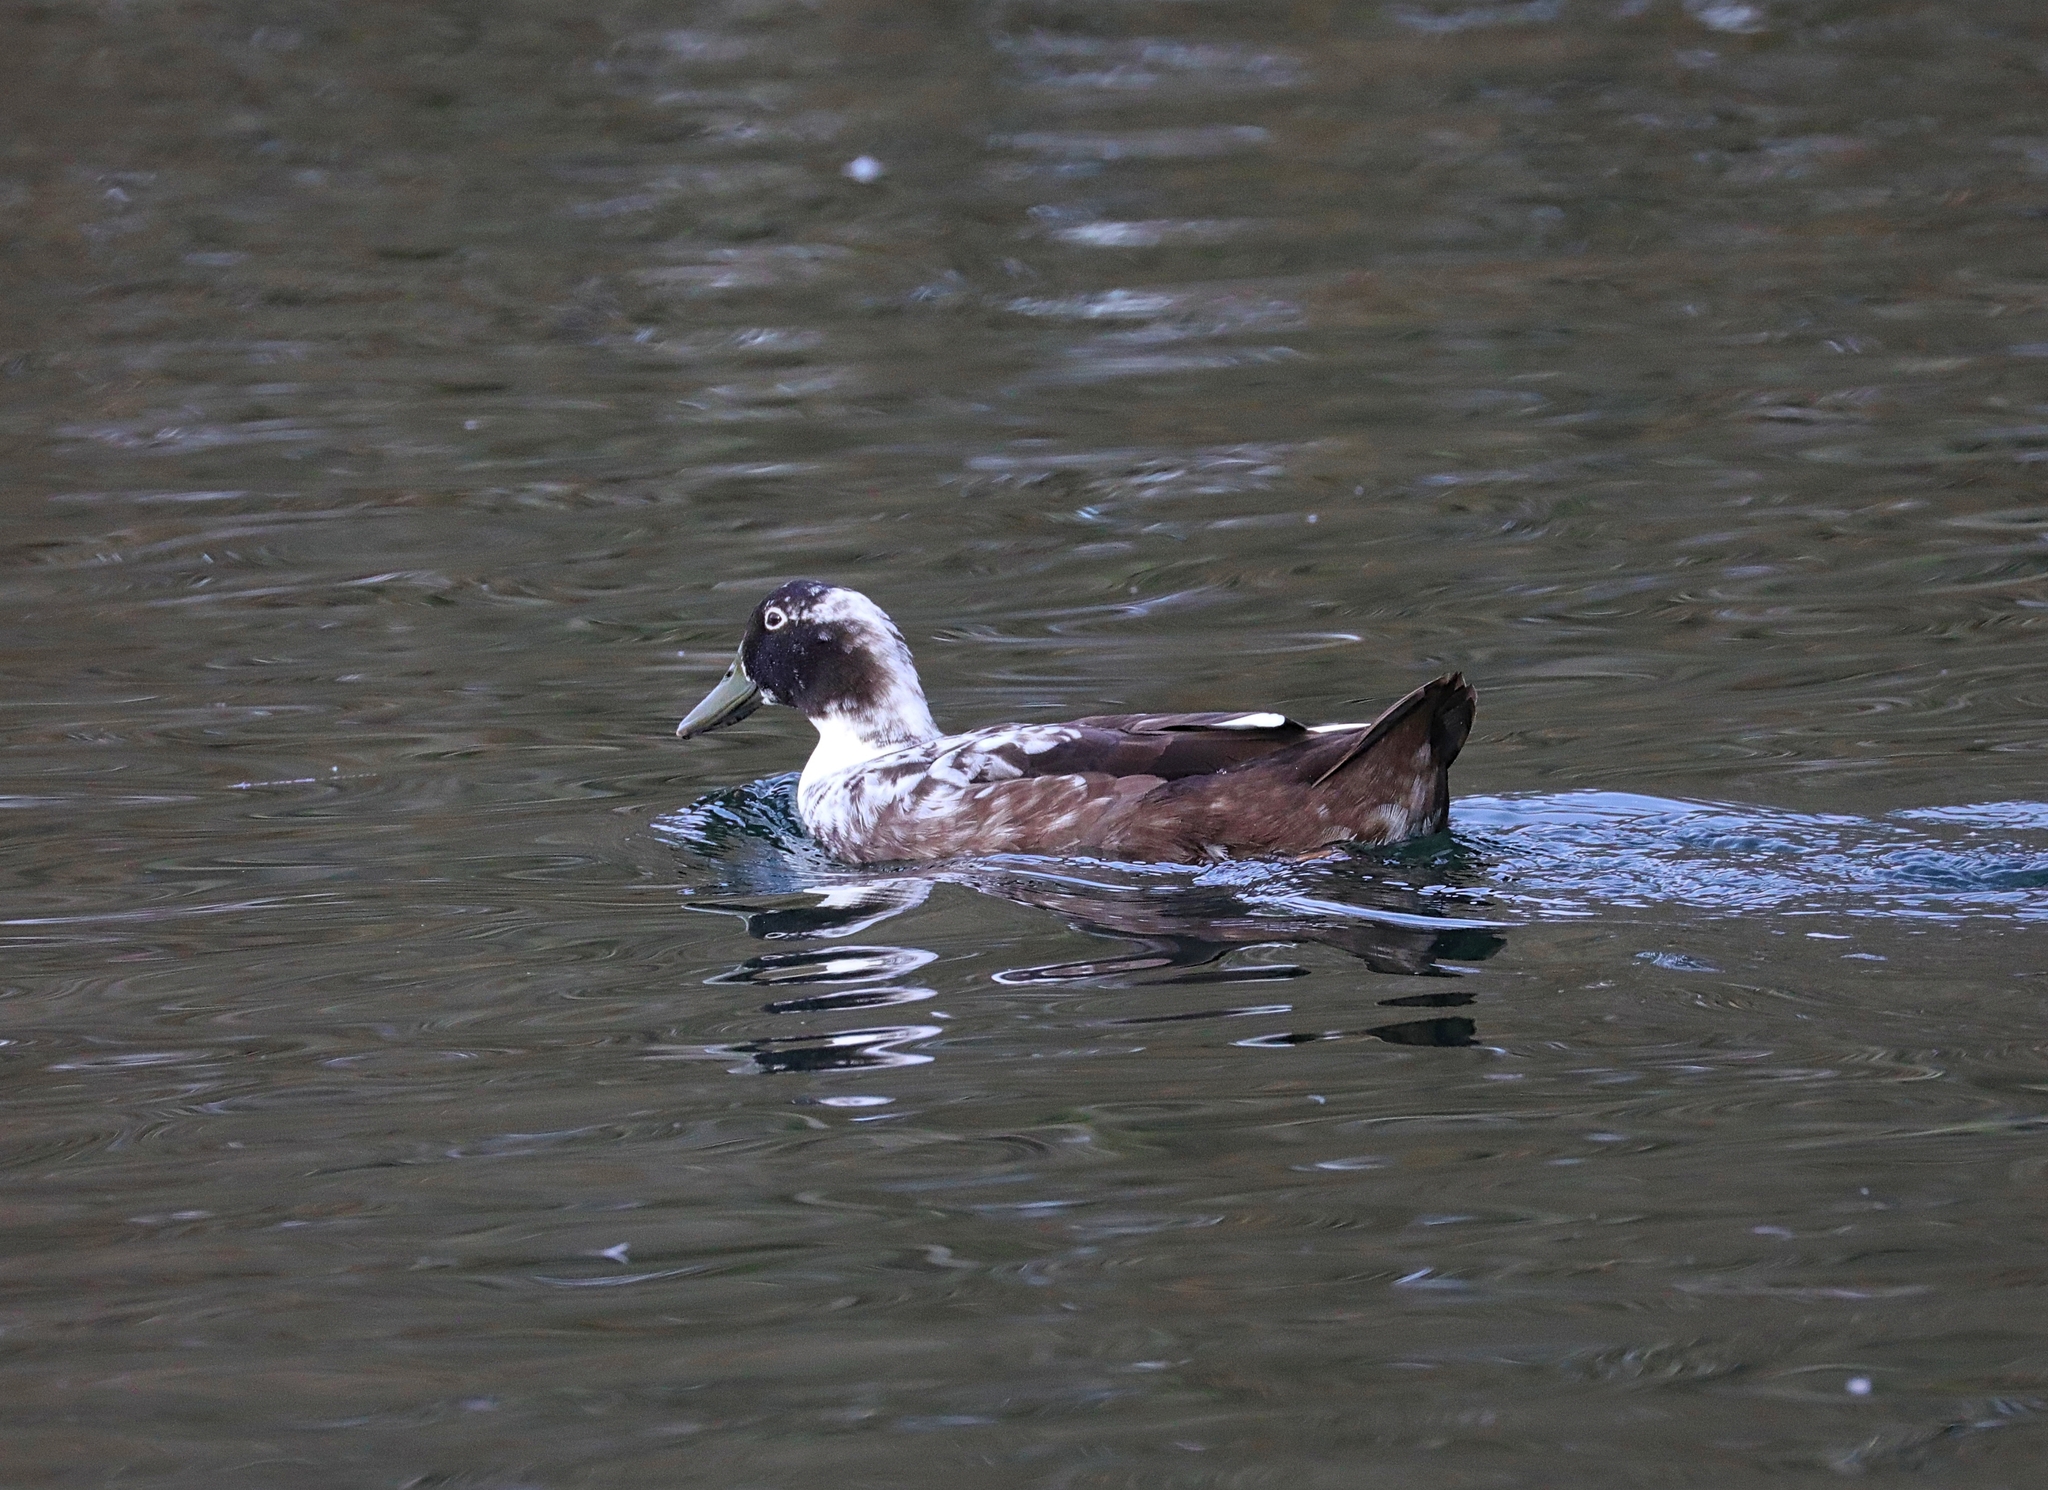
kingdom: Animalia
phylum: Chordata
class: Aves
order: Anseriformes
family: Anatidae
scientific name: Anatidae
